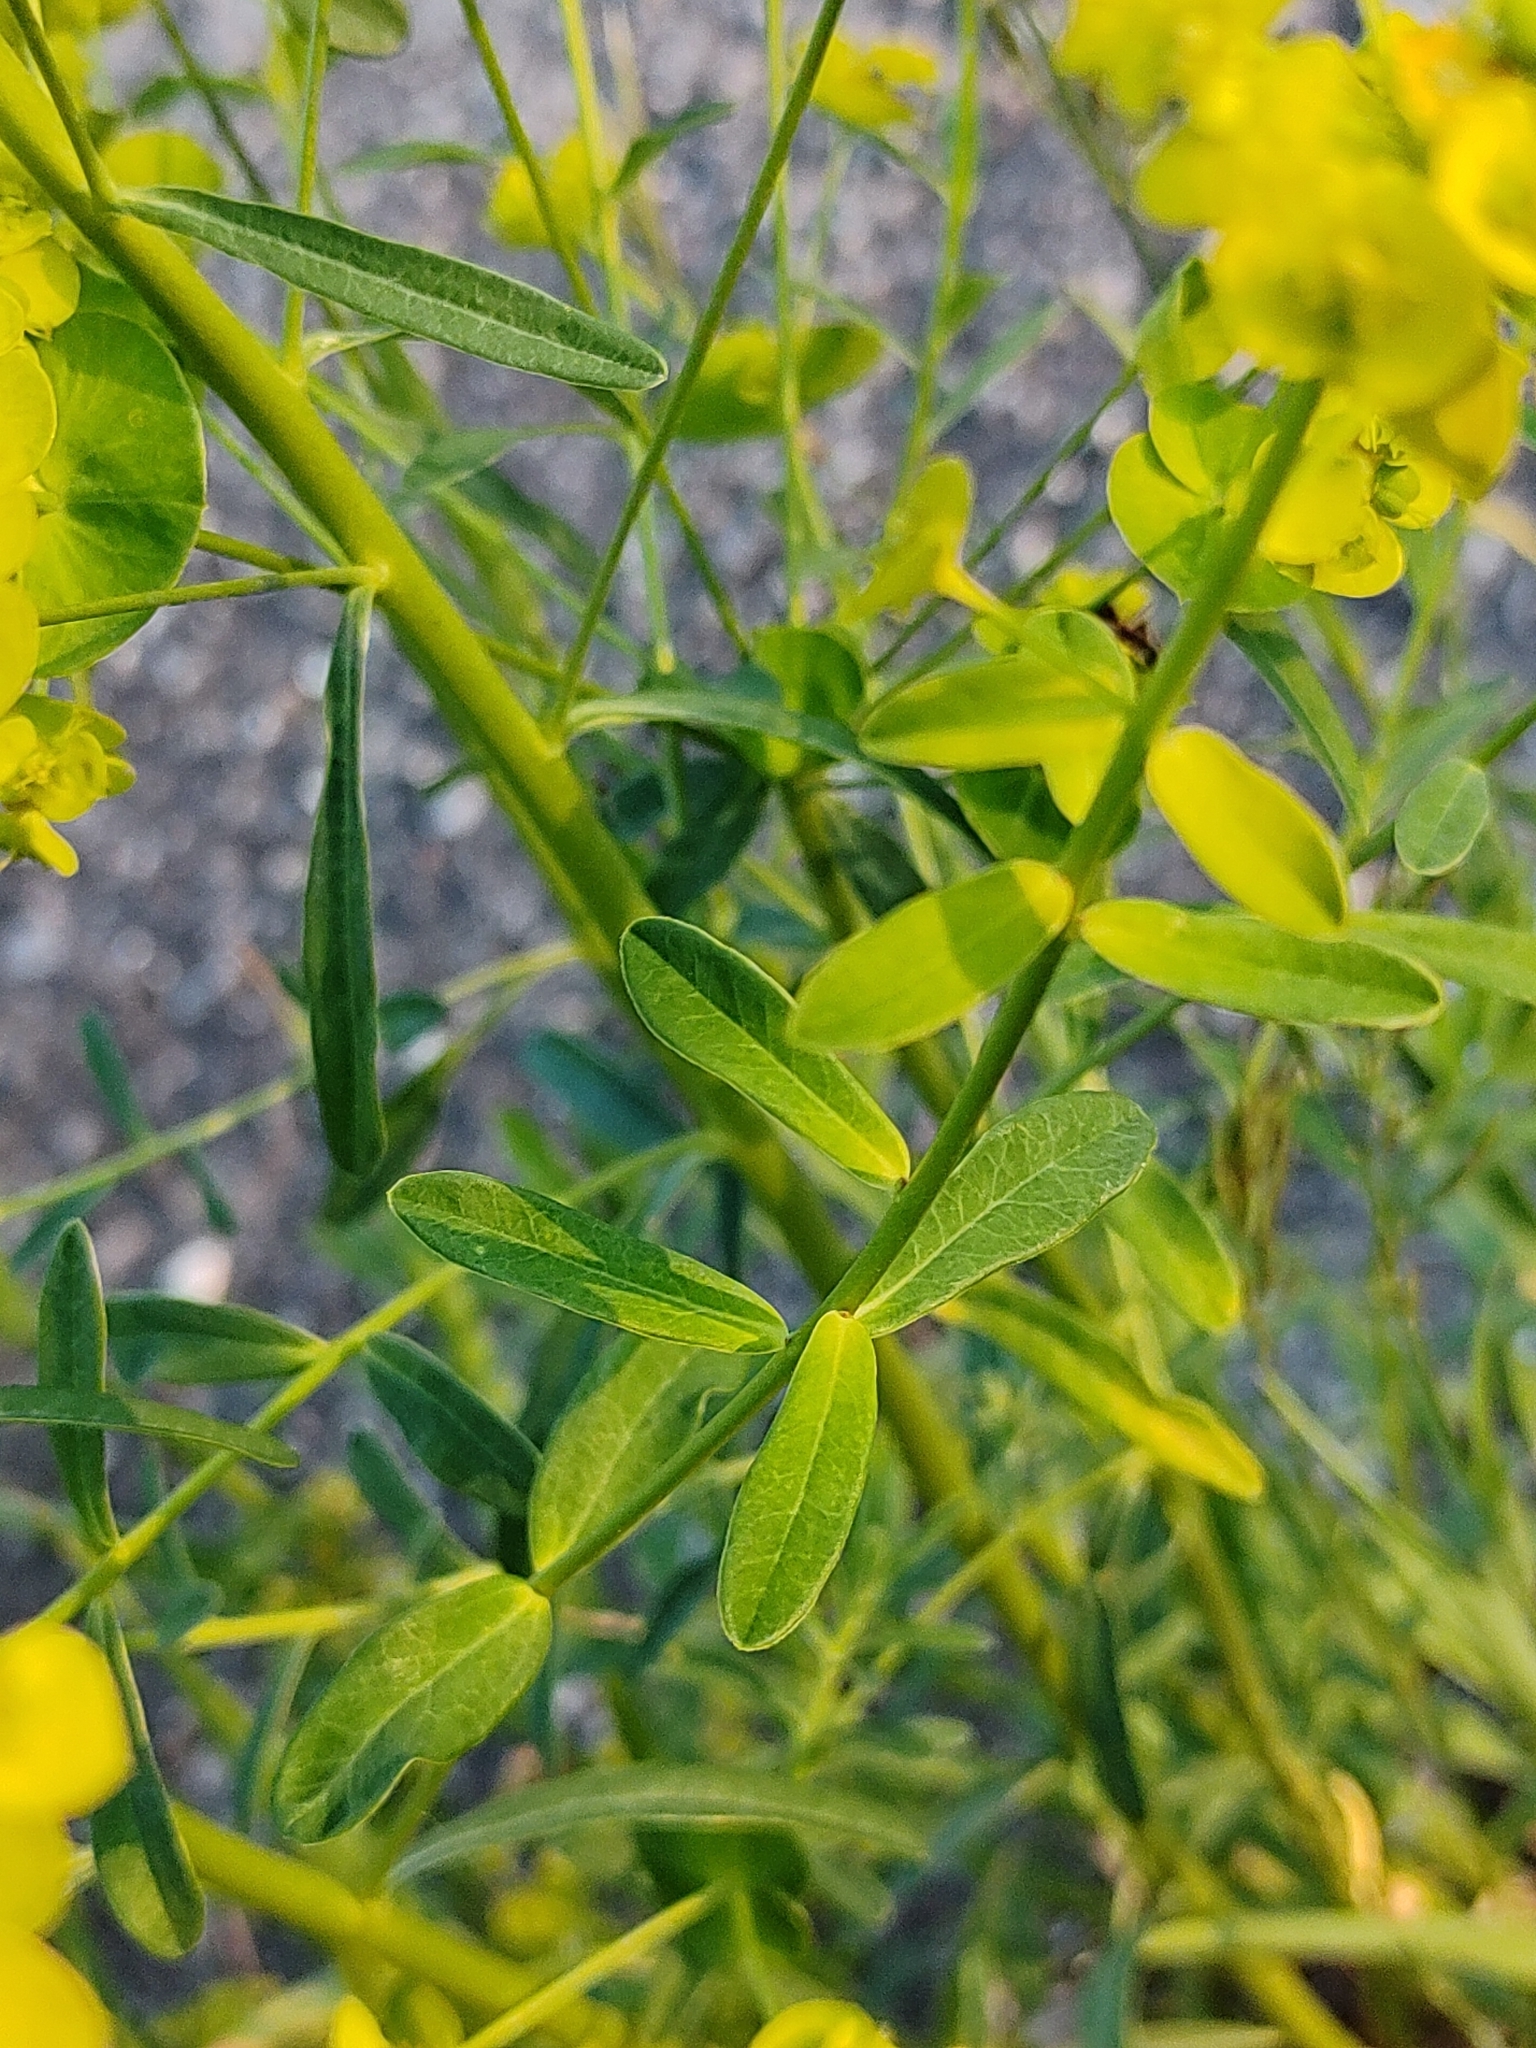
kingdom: Plantae
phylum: Tracheophyta
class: Magnoliopsida
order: Malpighiales
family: Euphorbiaceae
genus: Euphorbia
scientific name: Euphorbia esula
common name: Leafy spurge
